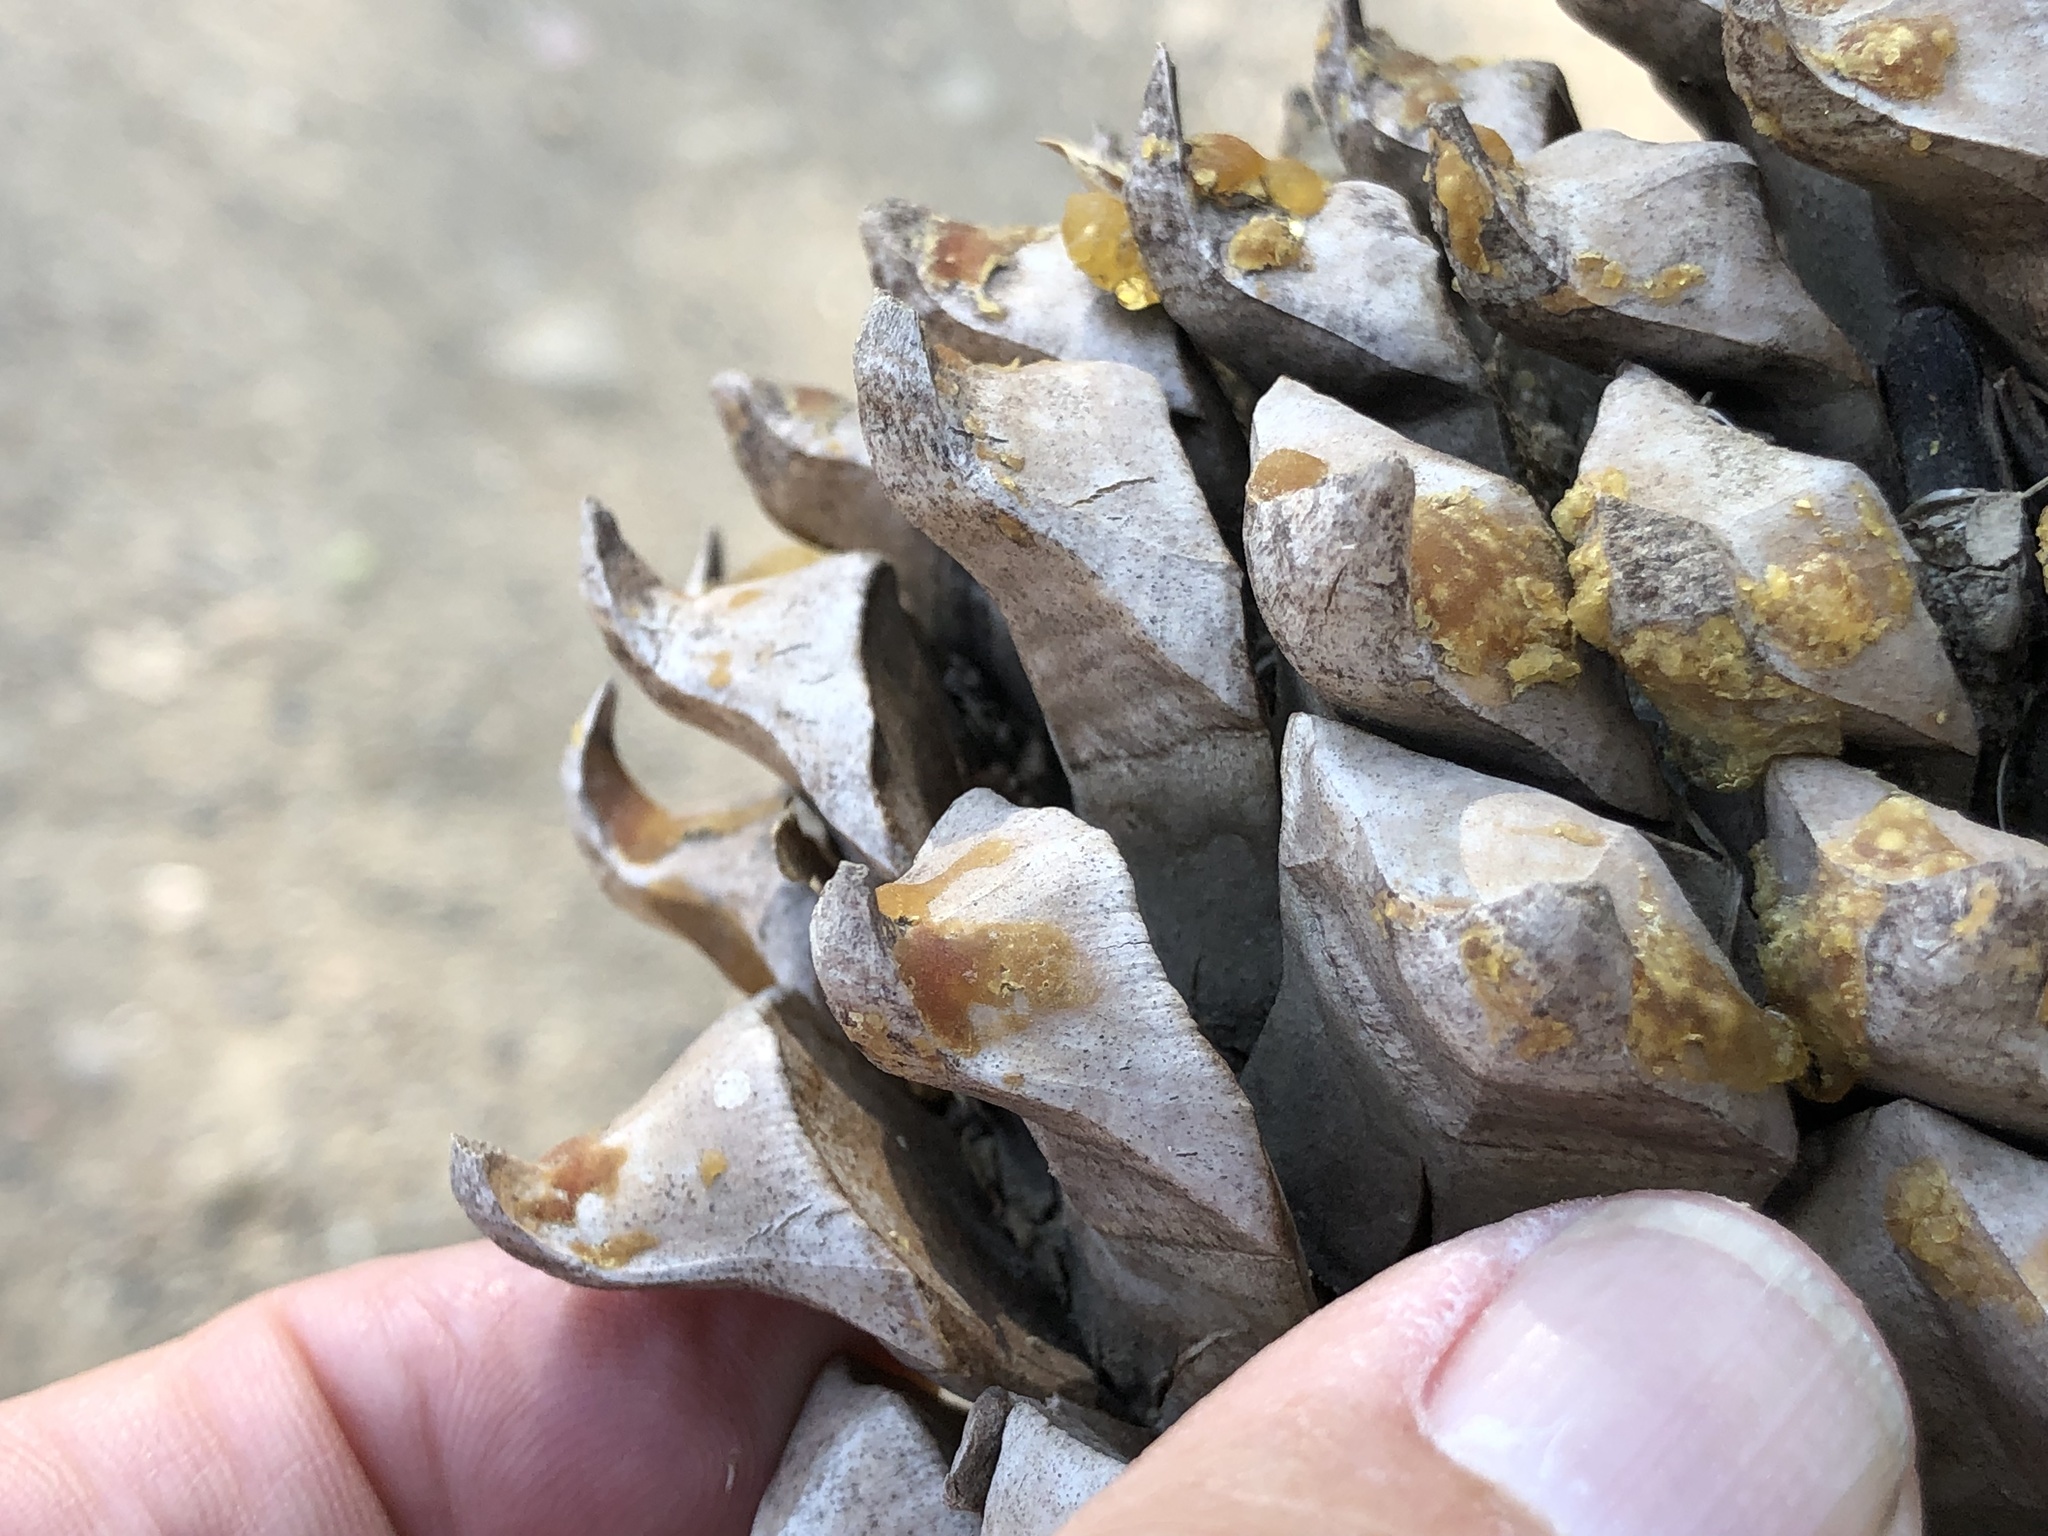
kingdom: Plantae
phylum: Tracheophyta
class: Pinopsida
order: Pinales
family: Pinaceae
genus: Pinus
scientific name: Pinus sabiniana
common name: Bull pine
